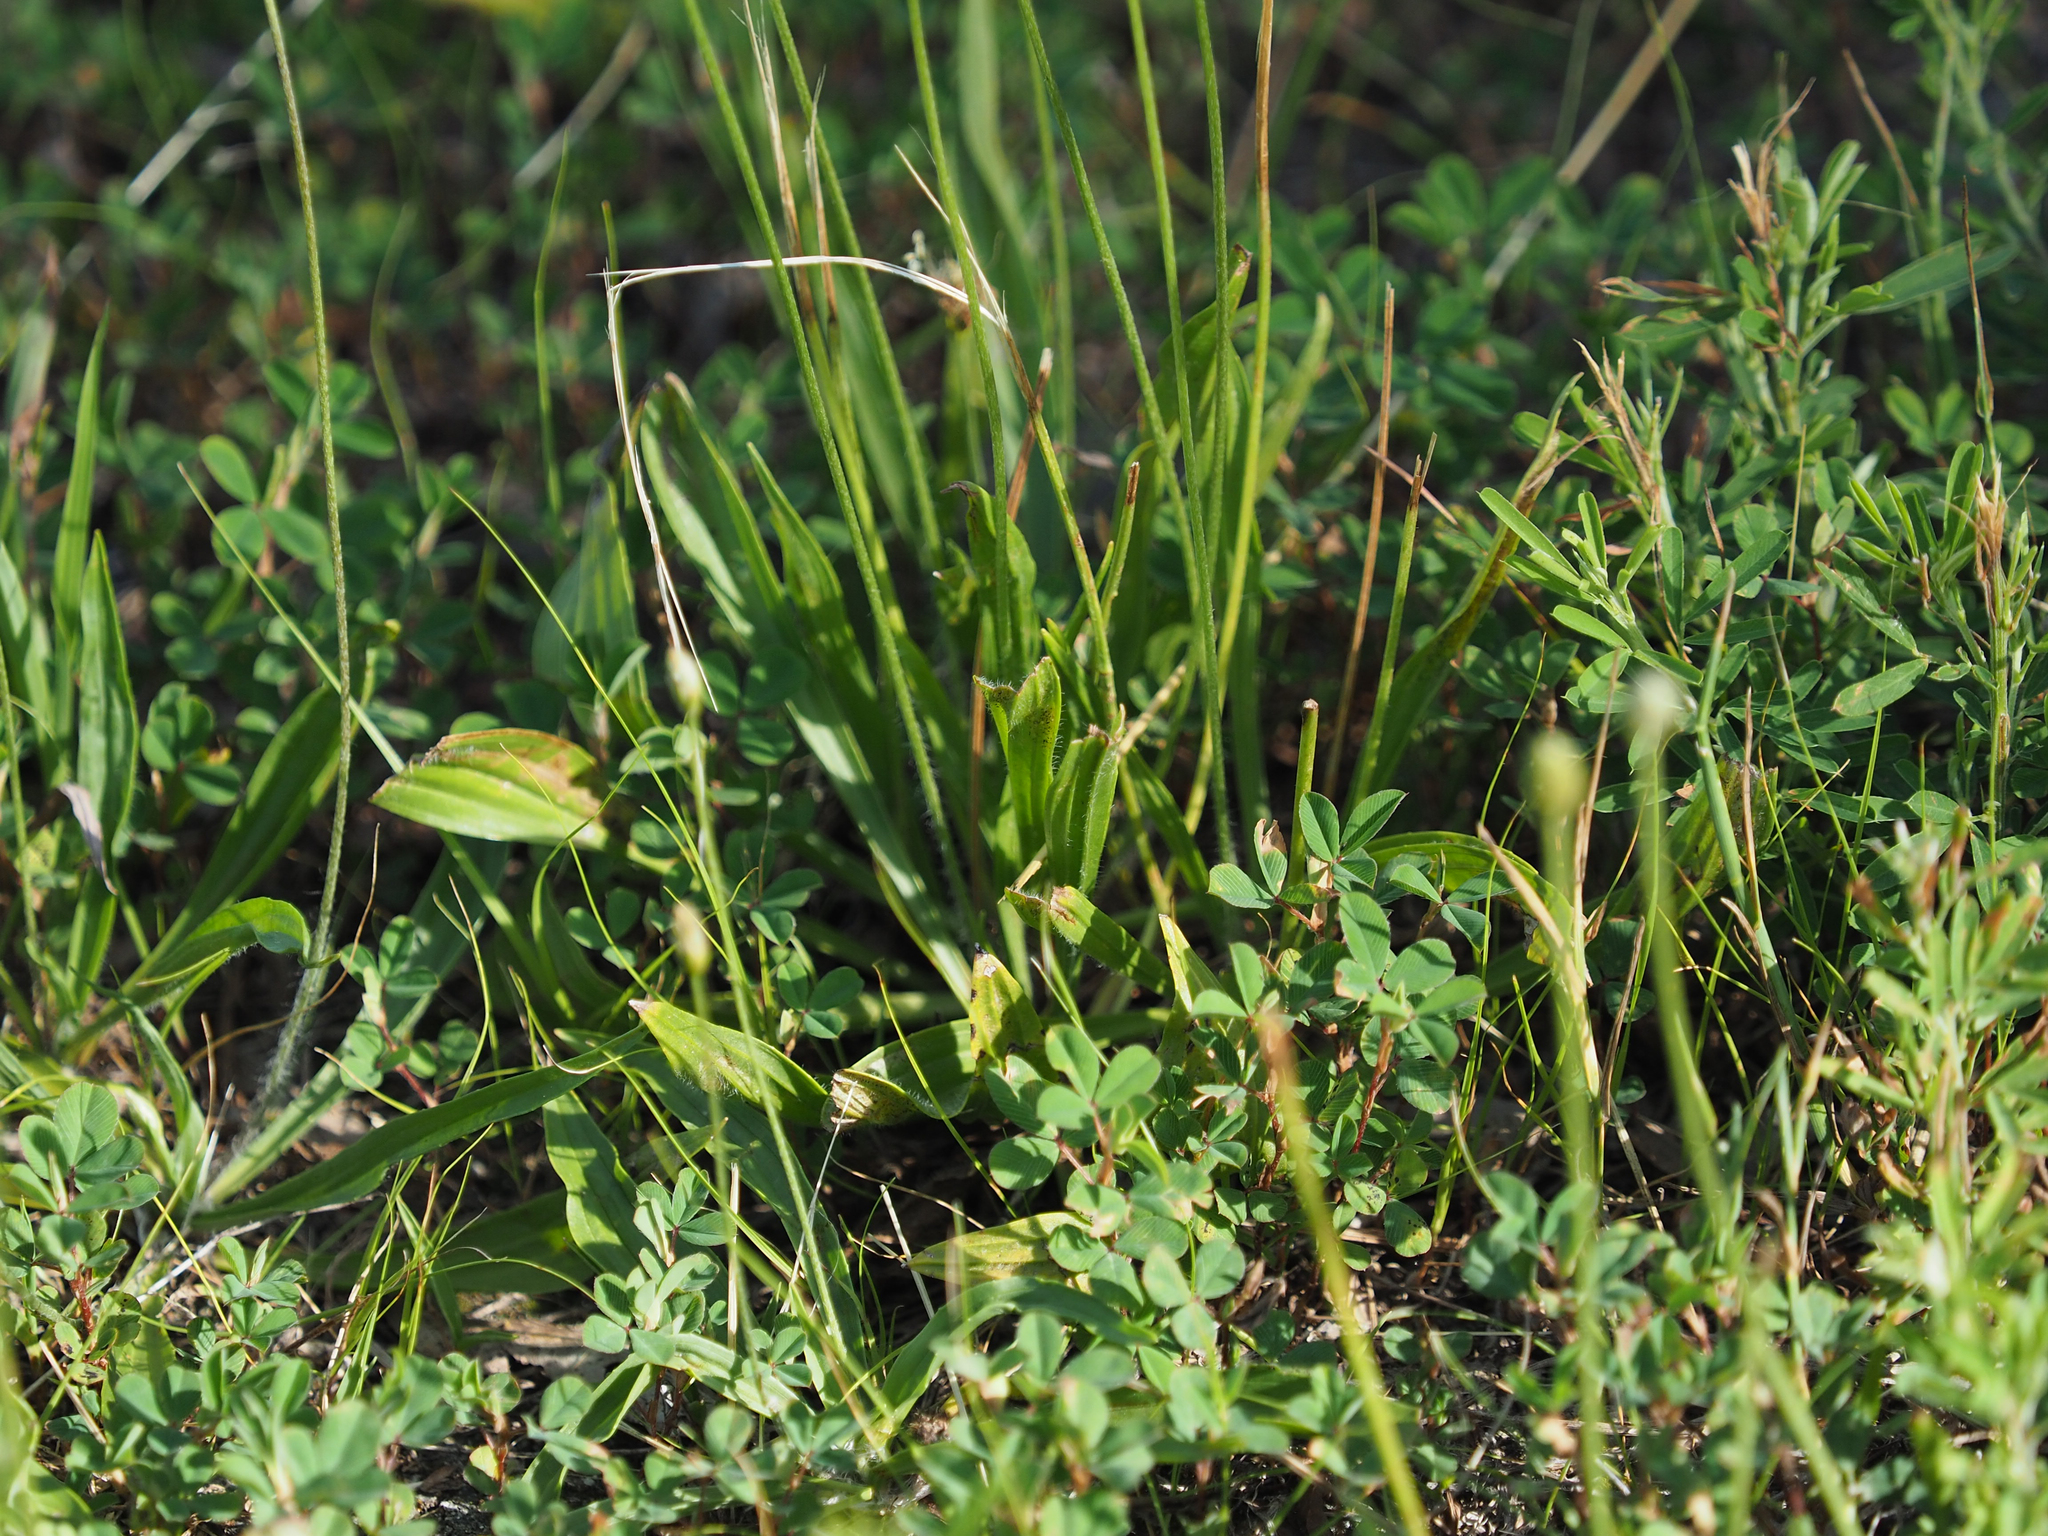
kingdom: Plantae
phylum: Tracheophyta
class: Magnoliopsida
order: Lamiales
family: Plantaginaceae
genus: Plantago
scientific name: Plantago lanceolata
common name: Ribwort plantain
